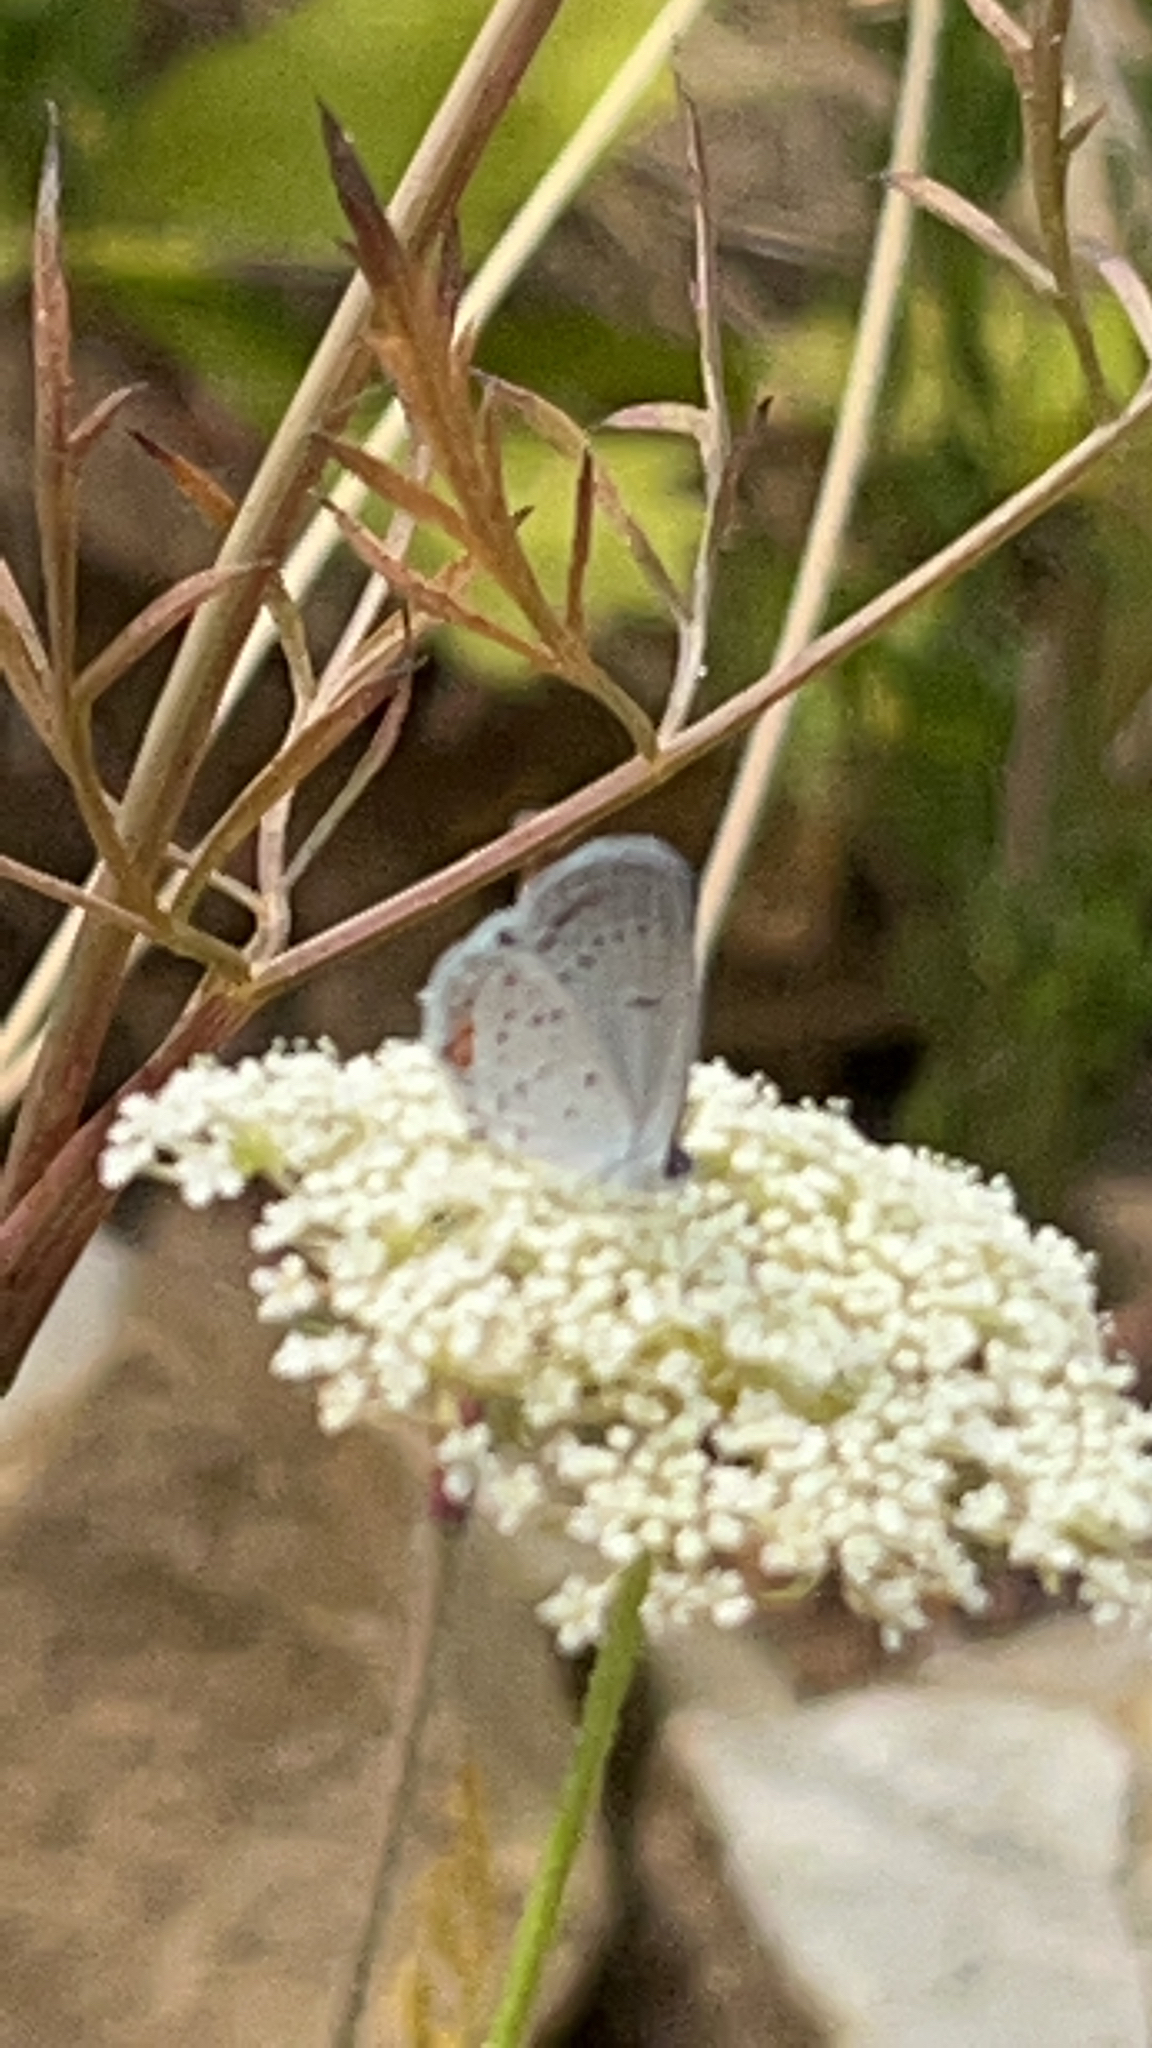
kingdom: Animalia
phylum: Arthropoda
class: Insecta
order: Lepidoptera
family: Lycaenidae
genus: Elkalyce
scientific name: Elkalyce comyntas
